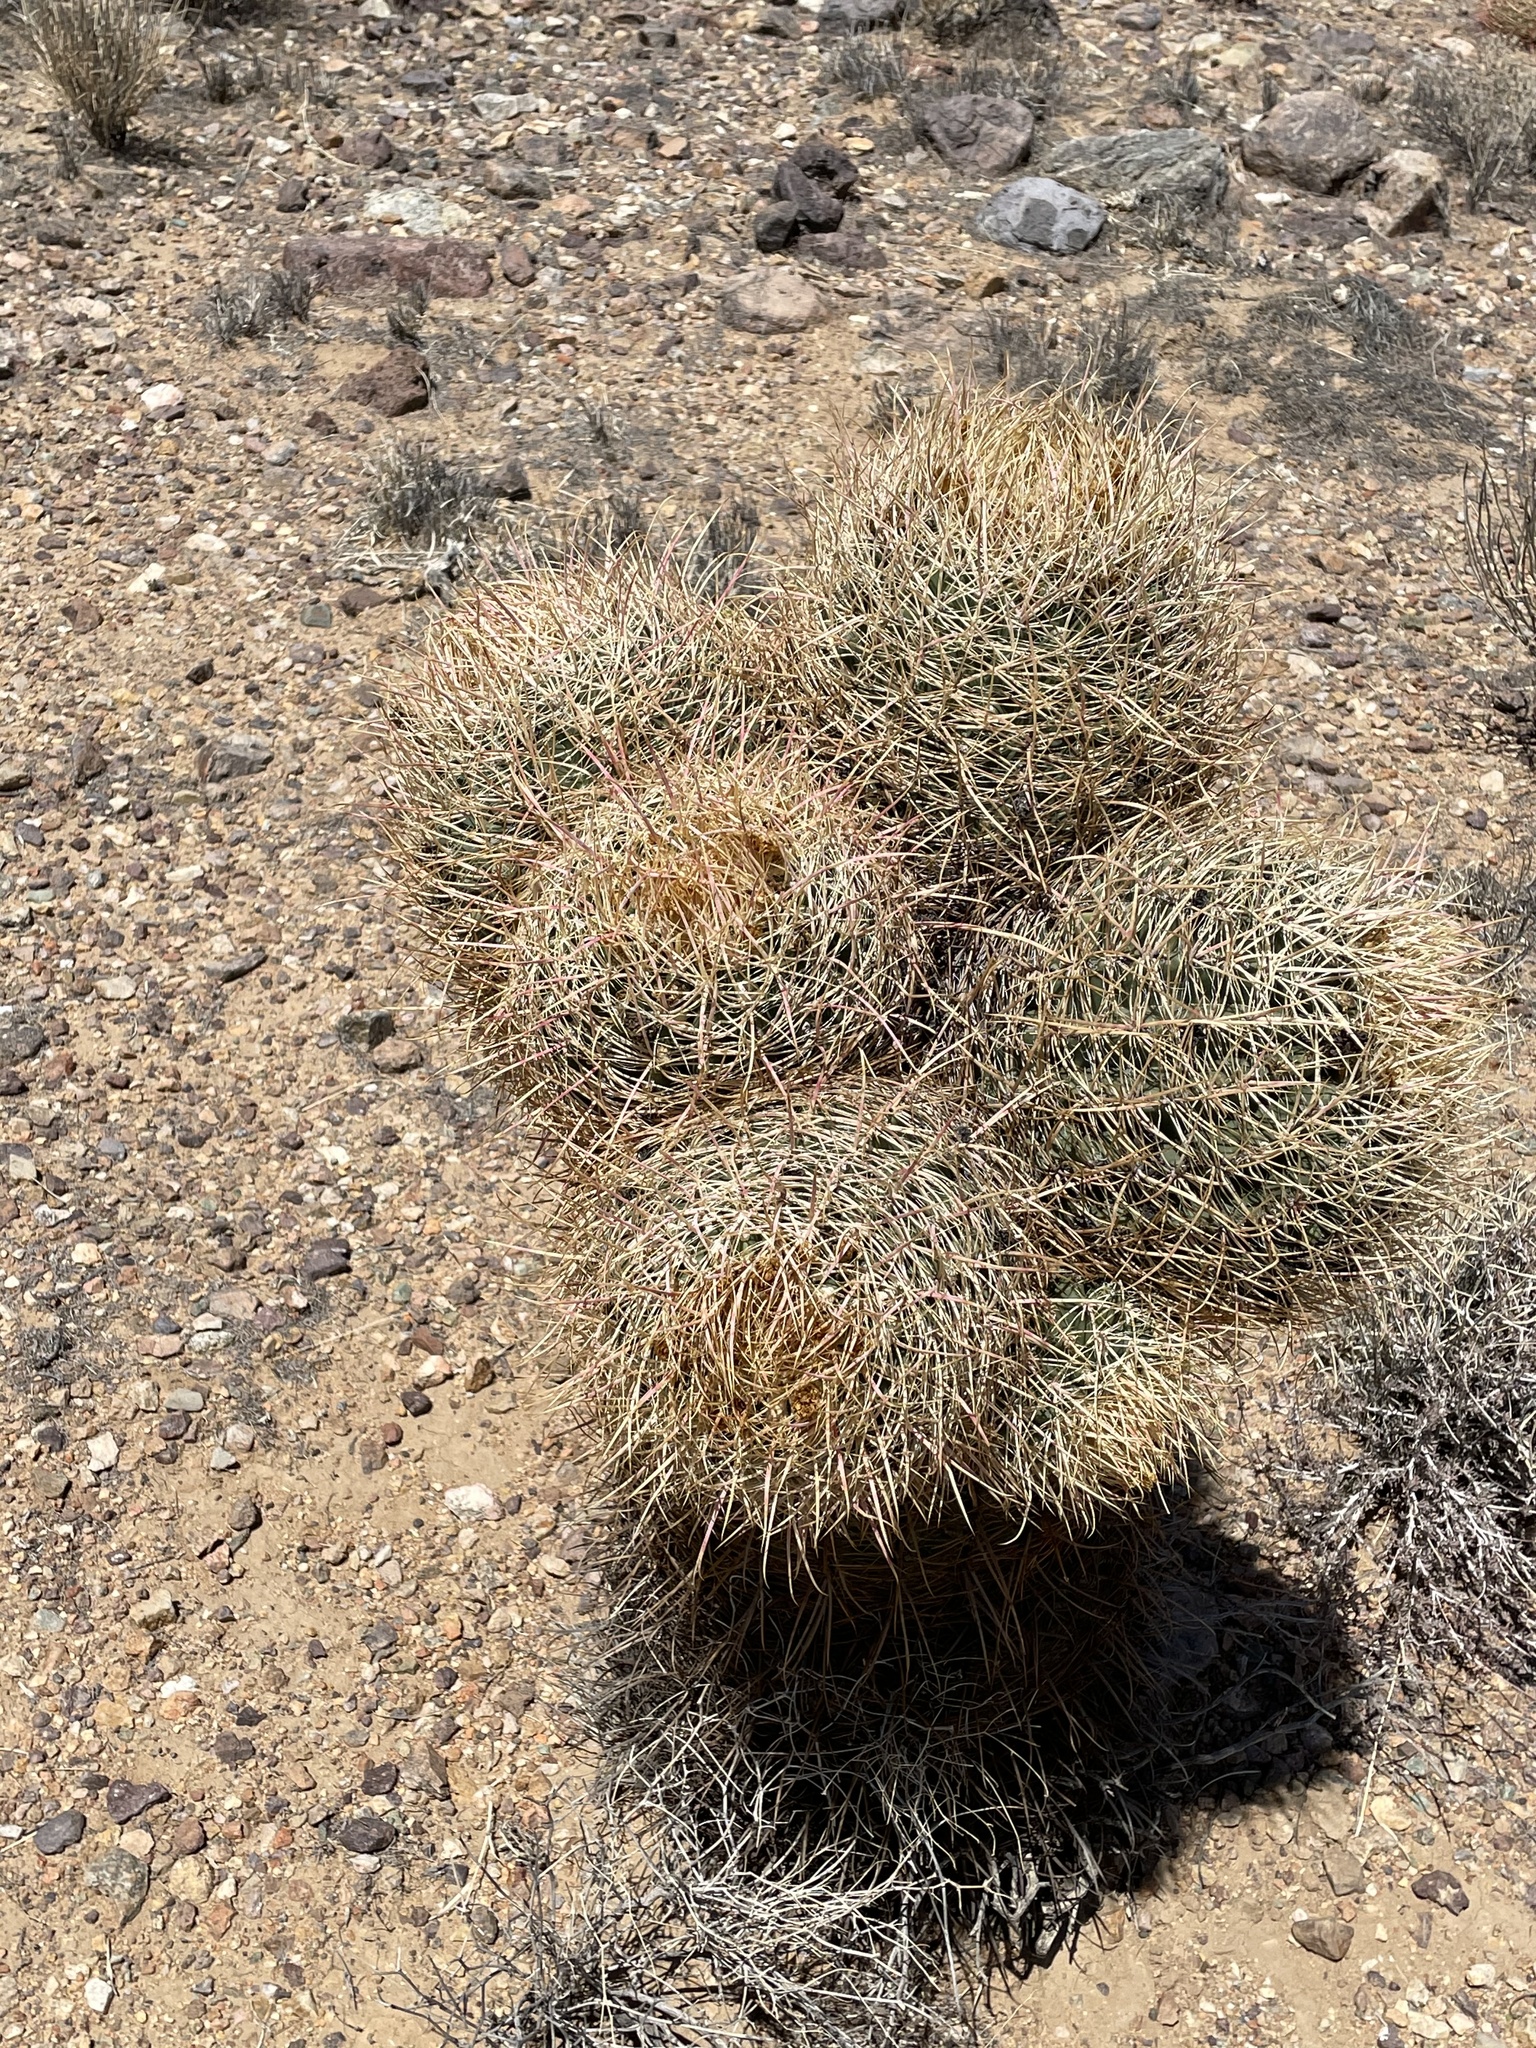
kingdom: Plantae
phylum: Tracheophyta
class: Magnoliopsida
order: Caryophyllales
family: Cactaceae
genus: Ferocactus
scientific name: Ferocactus cylindraceus
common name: California barrel cactus
